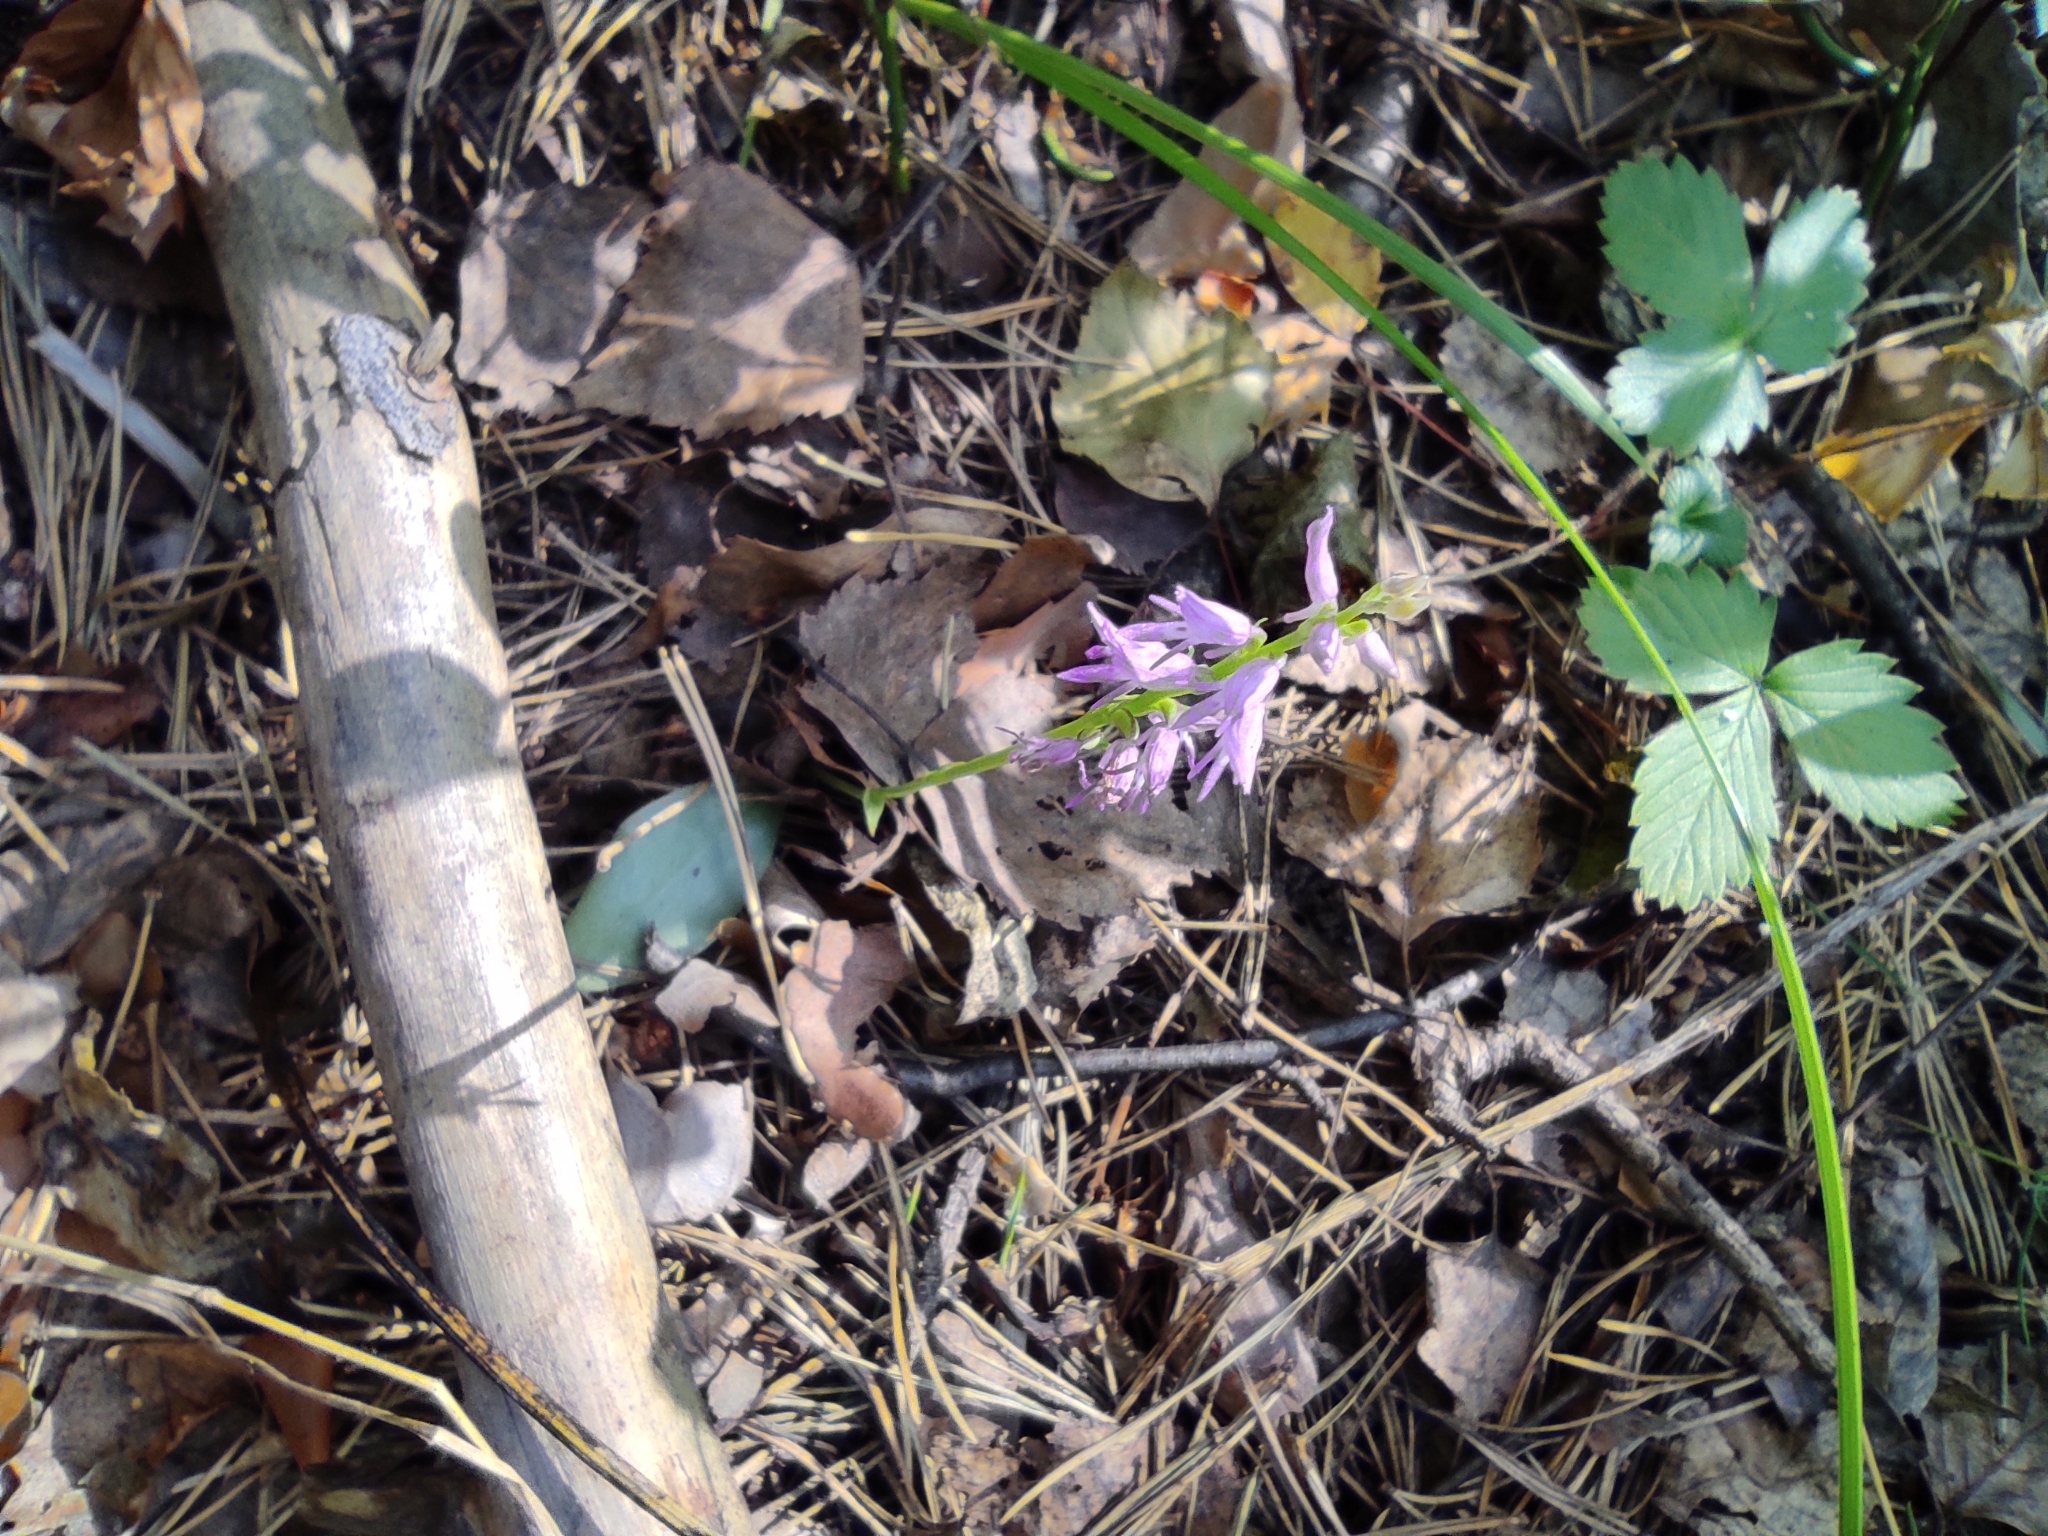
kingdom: Plantae
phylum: Tracheophyta
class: Liliopsida
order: Asparagales
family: Orchidaceae
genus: Hemipilia
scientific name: Hemipilia cucullata
